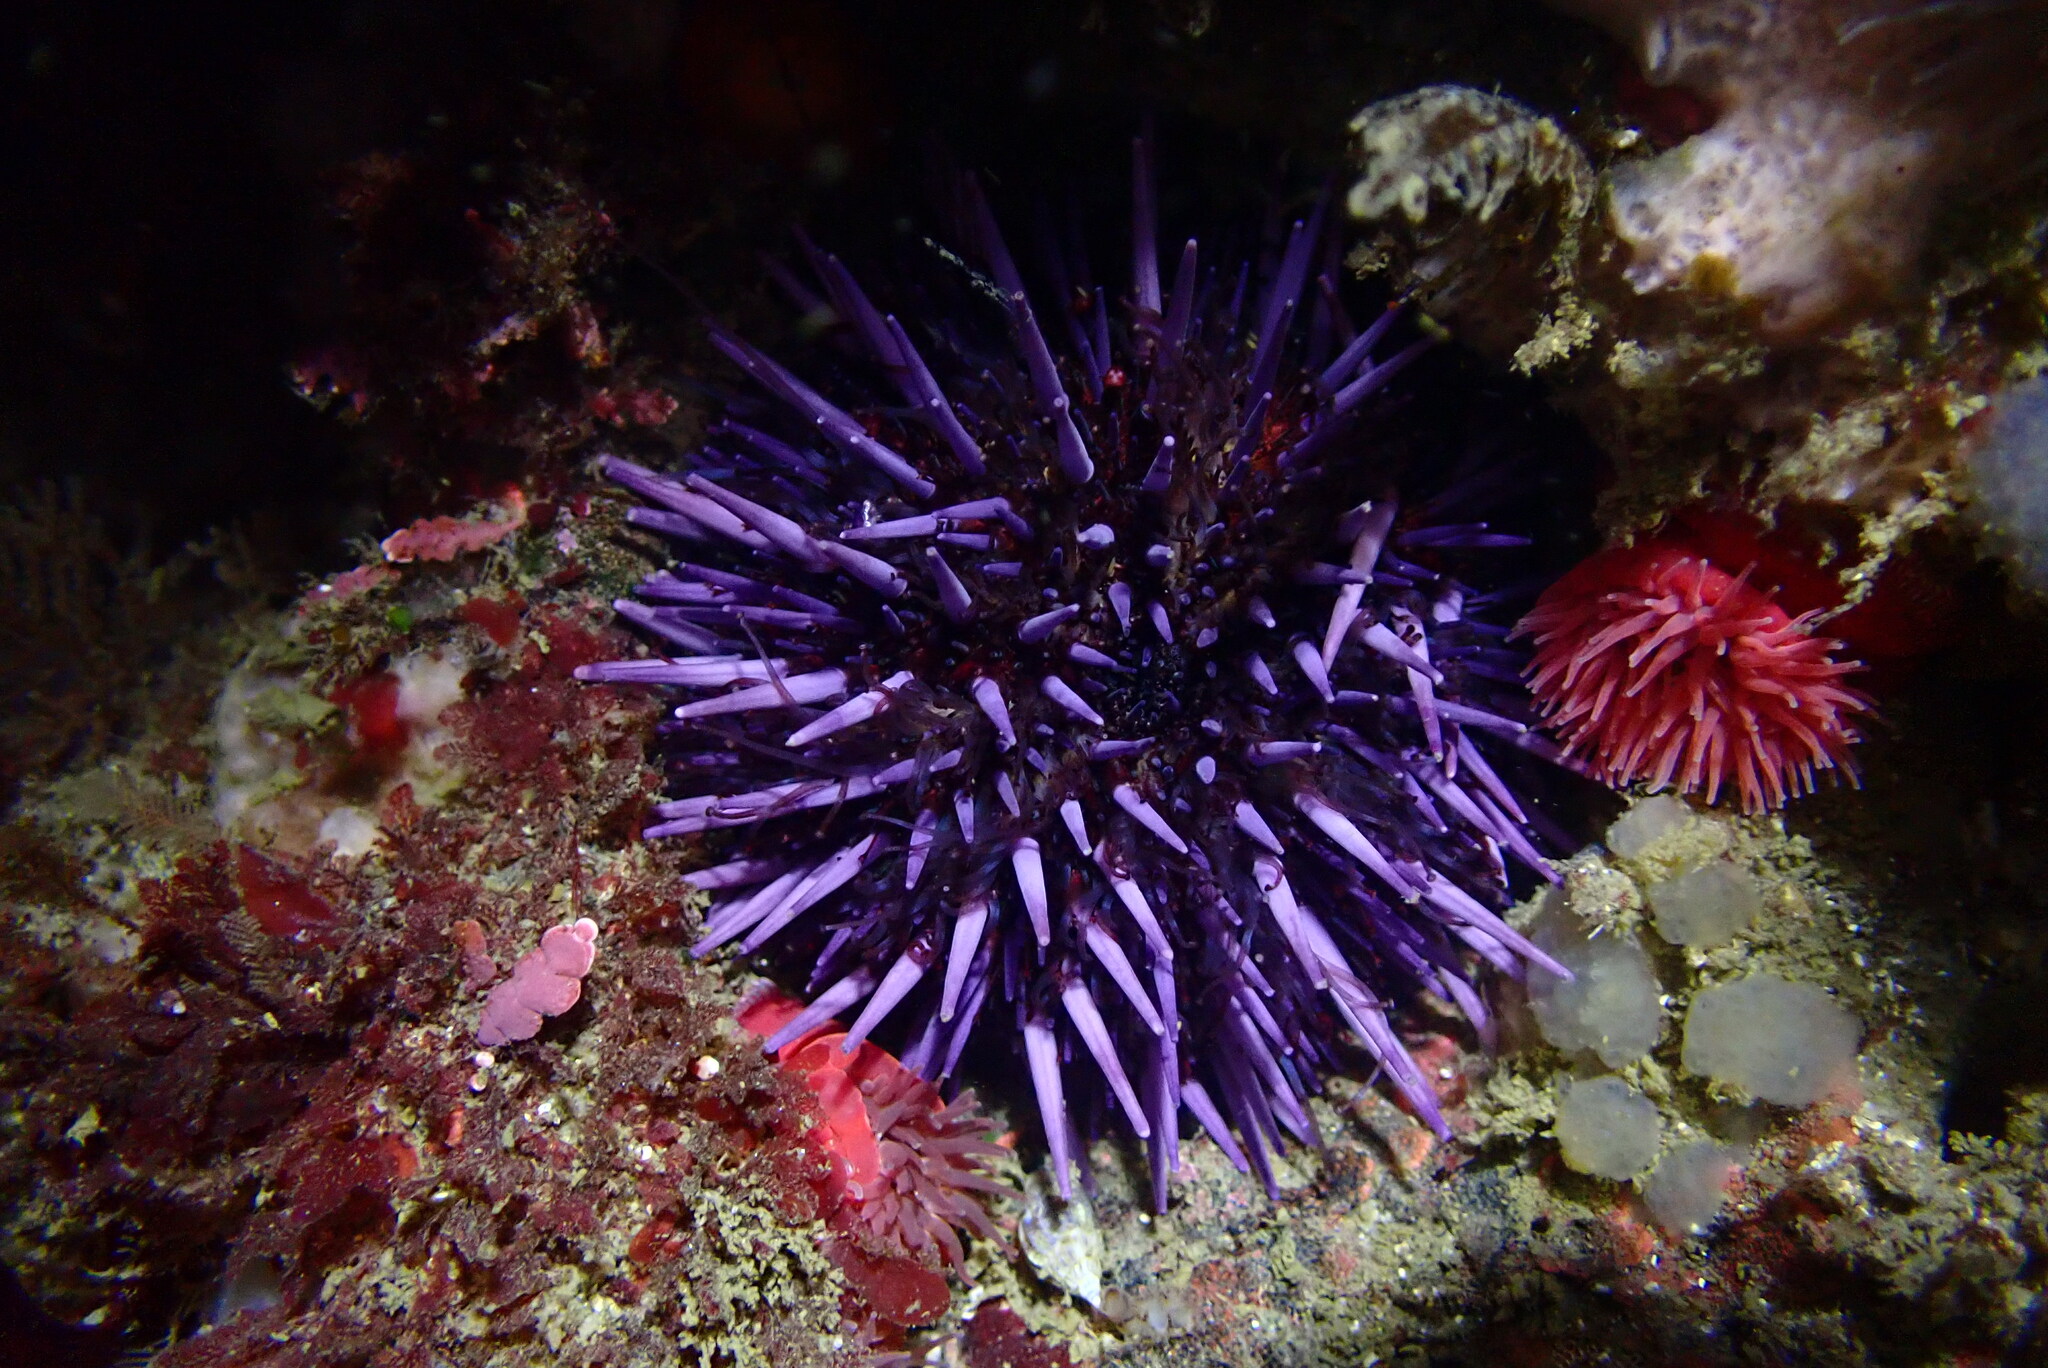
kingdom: Animalia
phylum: Echinodermata
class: Echinoidea
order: Camarodonta
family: Strongylocentrotidae
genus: Strongylocentrotus
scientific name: Strongylocentrotus purpuratus
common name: Purple sea urchin
